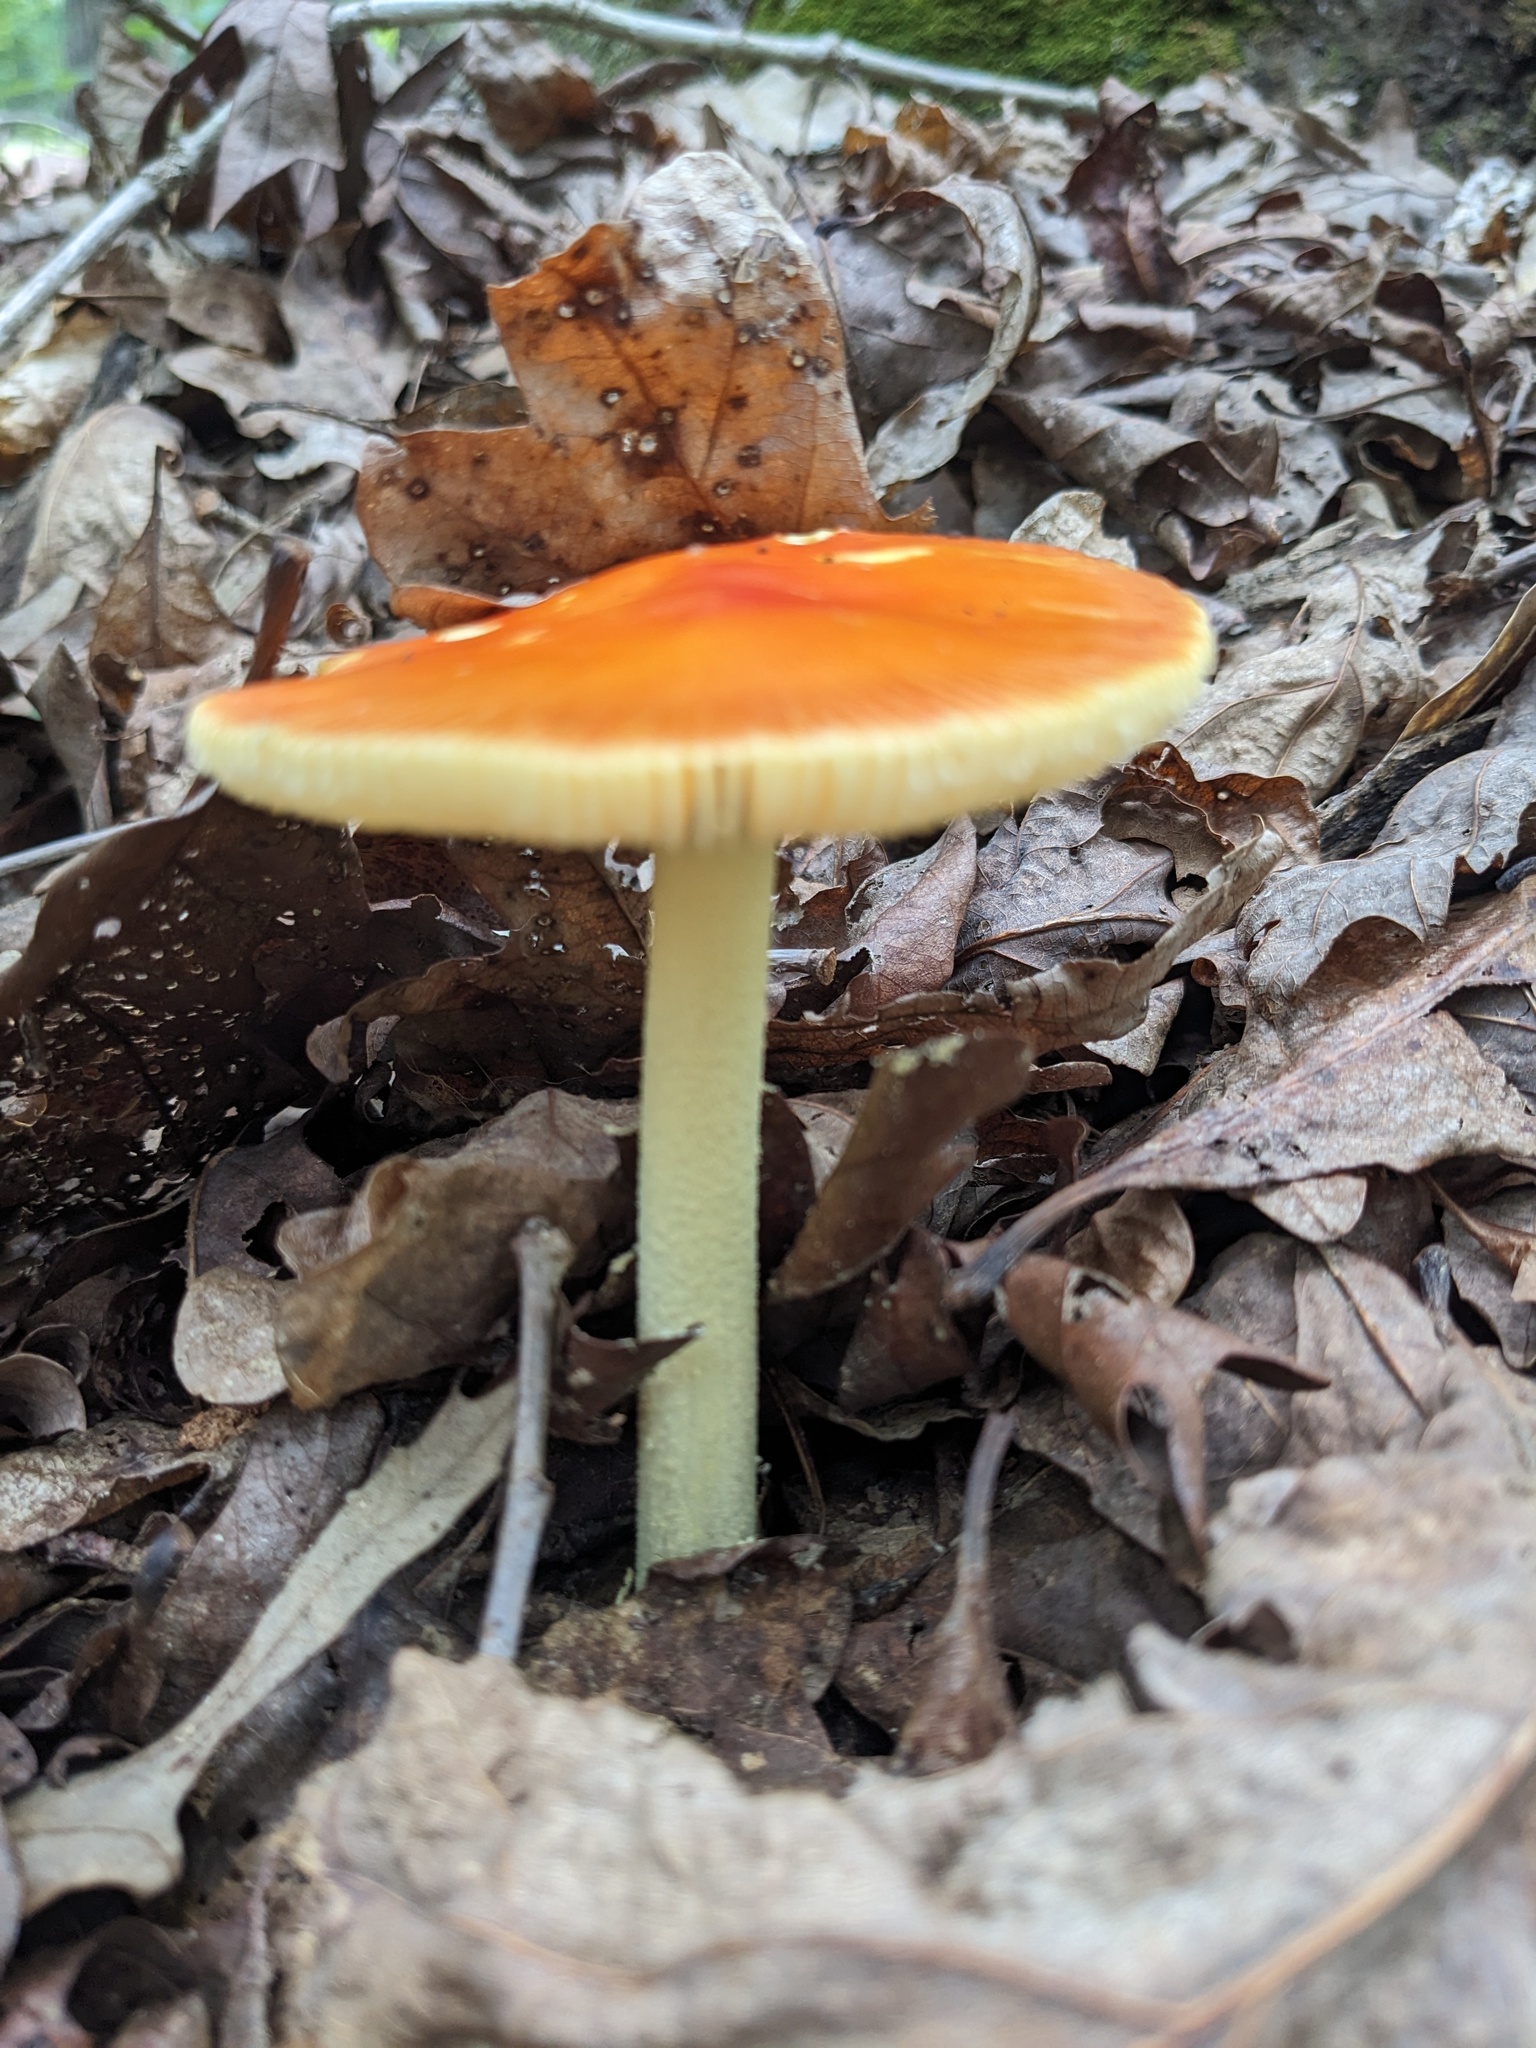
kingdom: Fungi
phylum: Basidiomycota
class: Agaricomycetes
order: Agaricales
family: Amanitaceae
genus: Amanita
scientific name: Amanita parcivolvata
